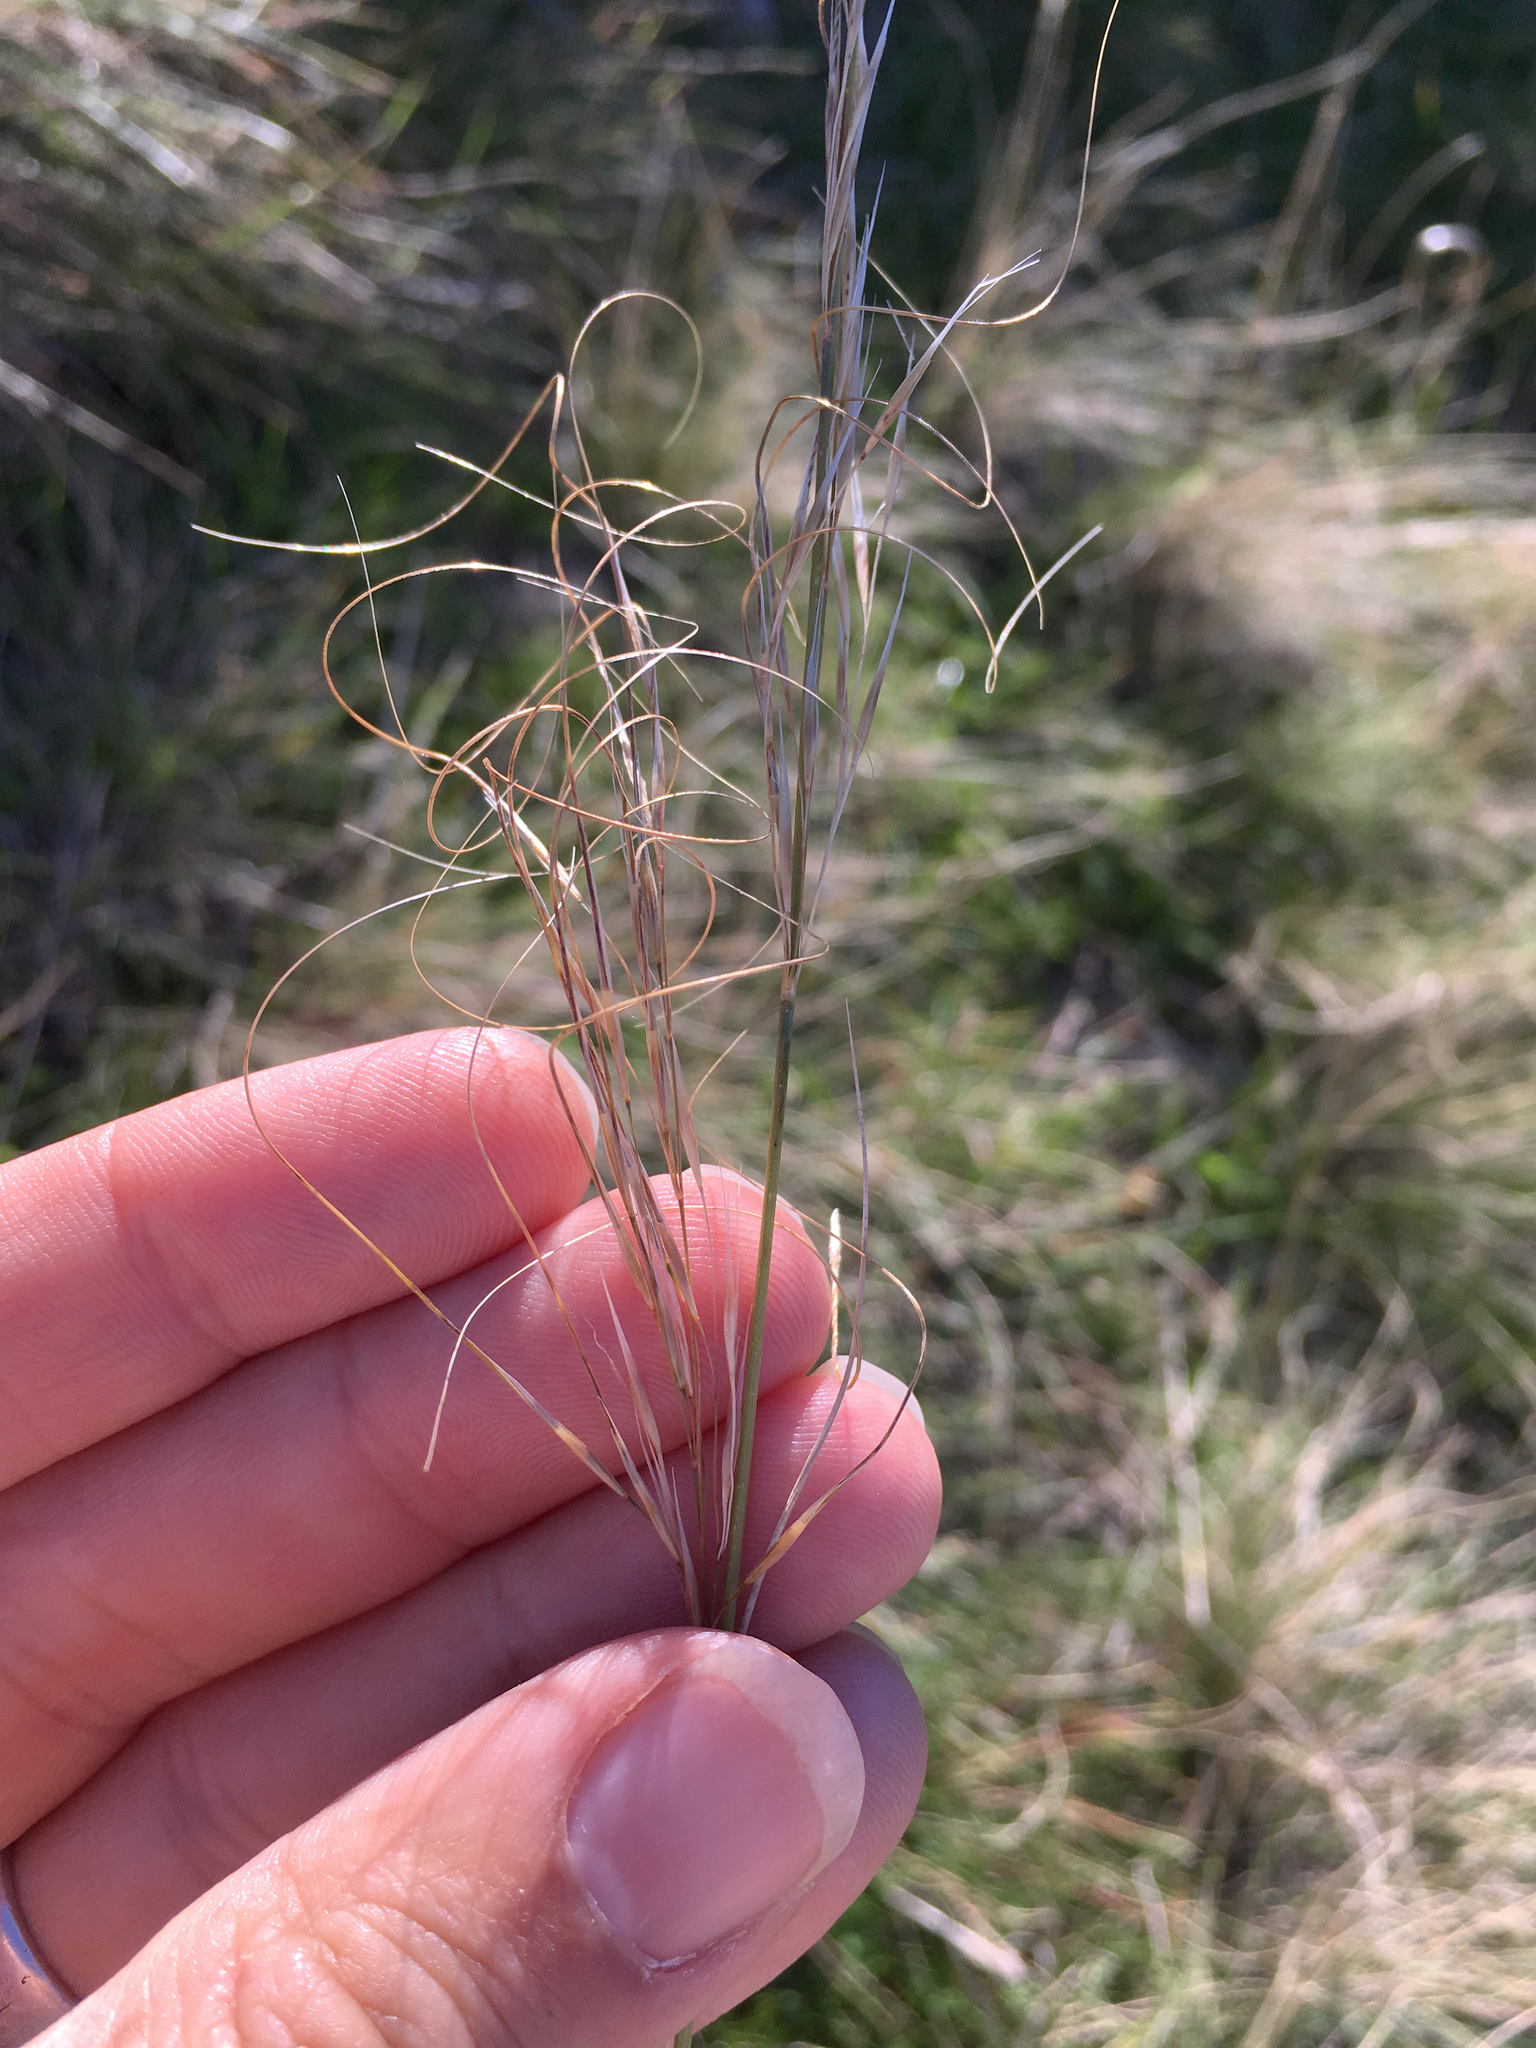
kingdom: Plantae
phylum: Tracheophyta
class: Liliopsida
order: Poales
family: Poaceae
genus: Austrostipa
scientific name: Austrostipa bigeniculata
